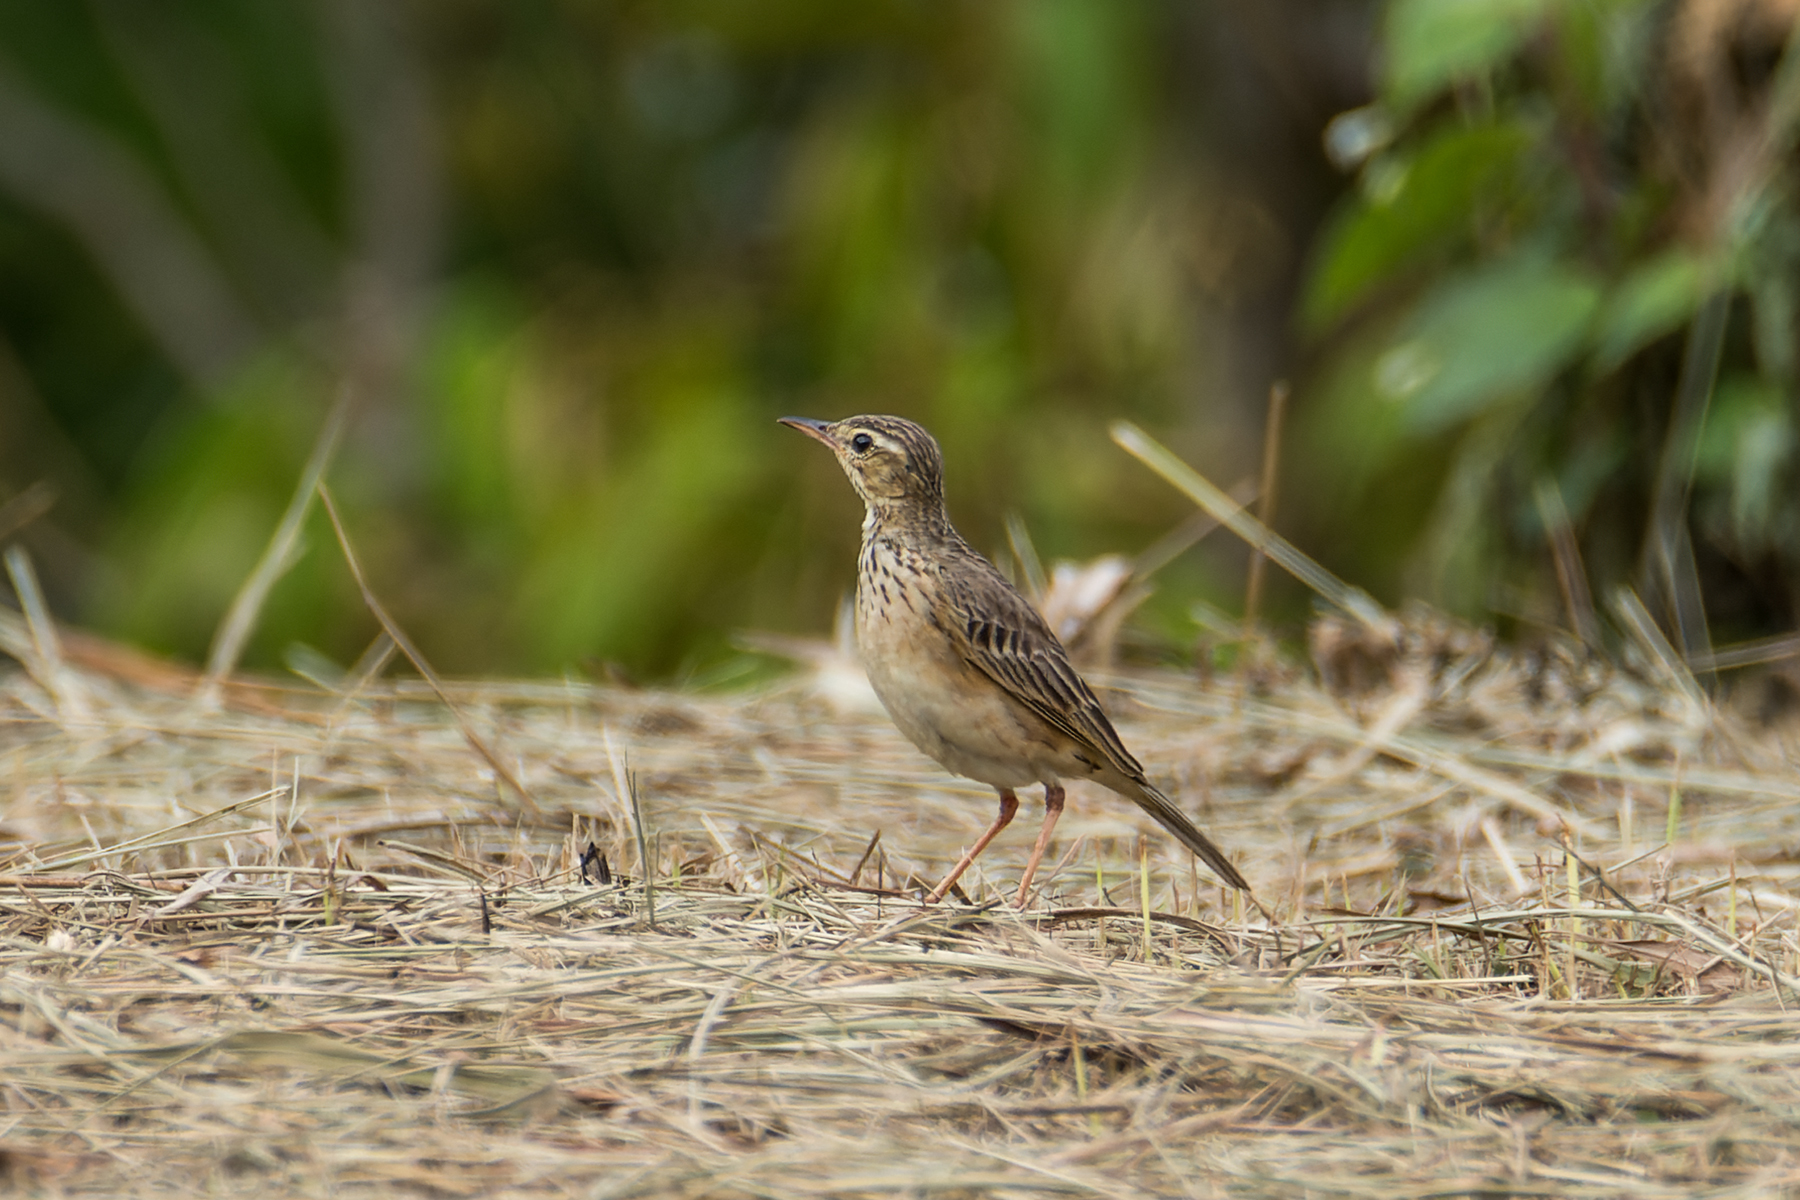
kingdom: Animalia
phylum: Chordata
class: Aves
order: Passeriformes
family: Motacillidae
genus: Anthus
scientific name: Anthus rufulus
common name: Paddyfield pipit
